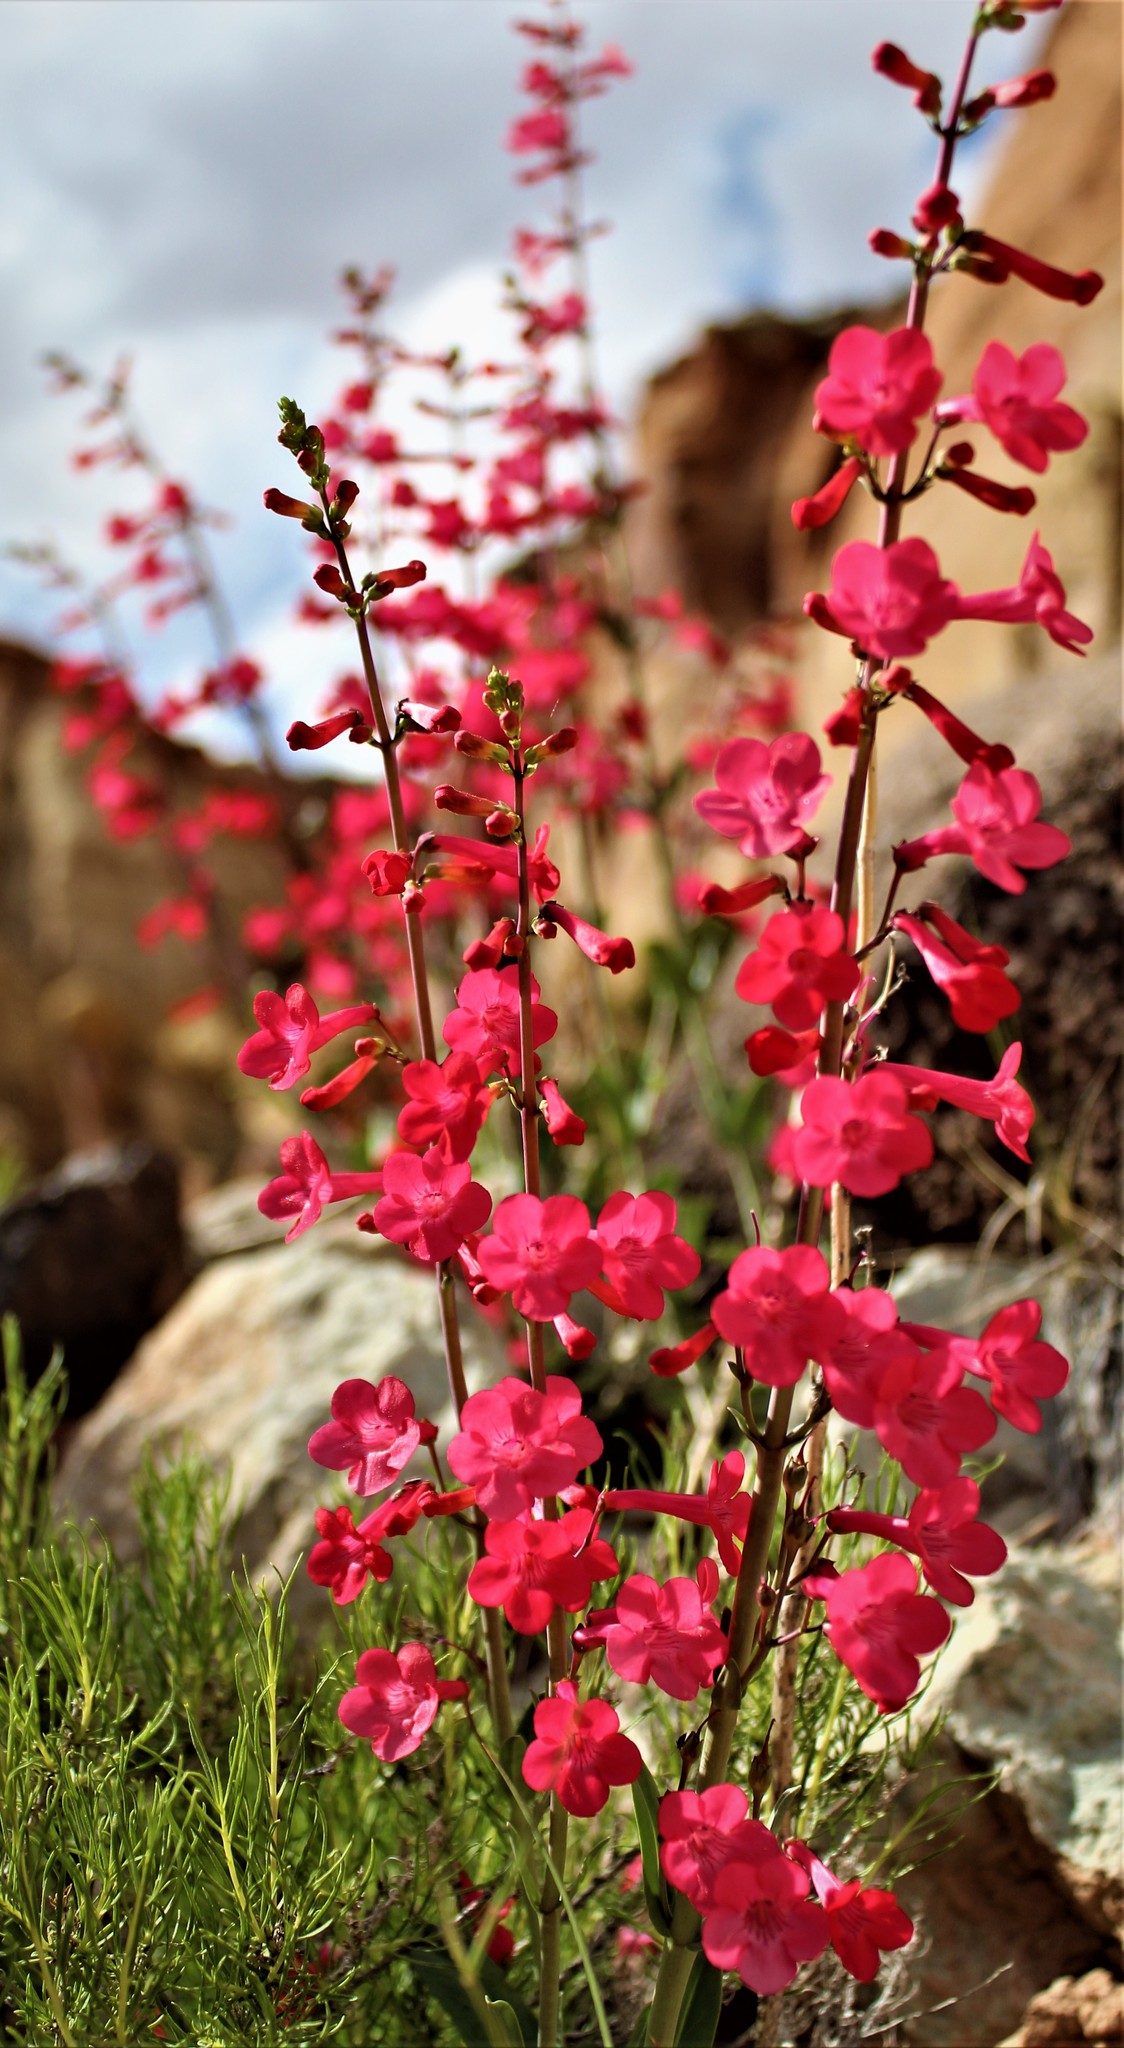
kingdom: Plantae
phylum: Tracheophyta
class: Magnoliopsida
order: Lamiales
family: Plantaginaceae
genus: Penstemon
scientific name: Penstemon utahensis
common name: Utah penstemon
